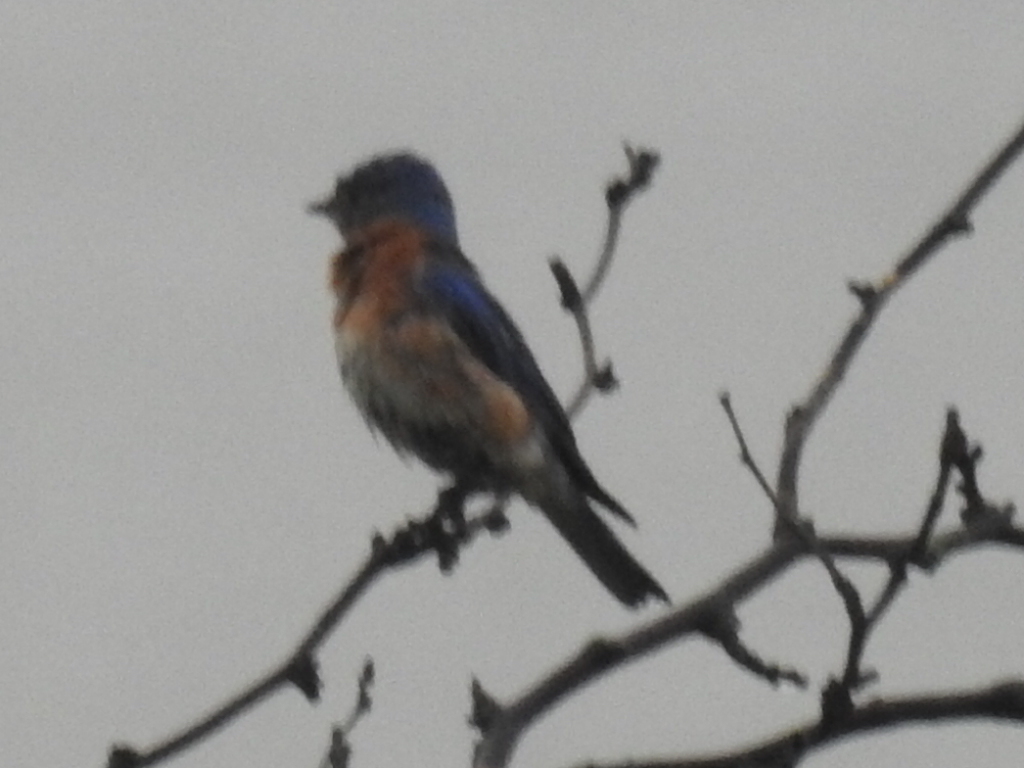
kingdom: Animalia
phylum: Chordata
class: Aves
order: Passeriformes
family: Turdidae
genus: Sialia
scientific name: Sialia sialis
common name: Eastern bluebird
